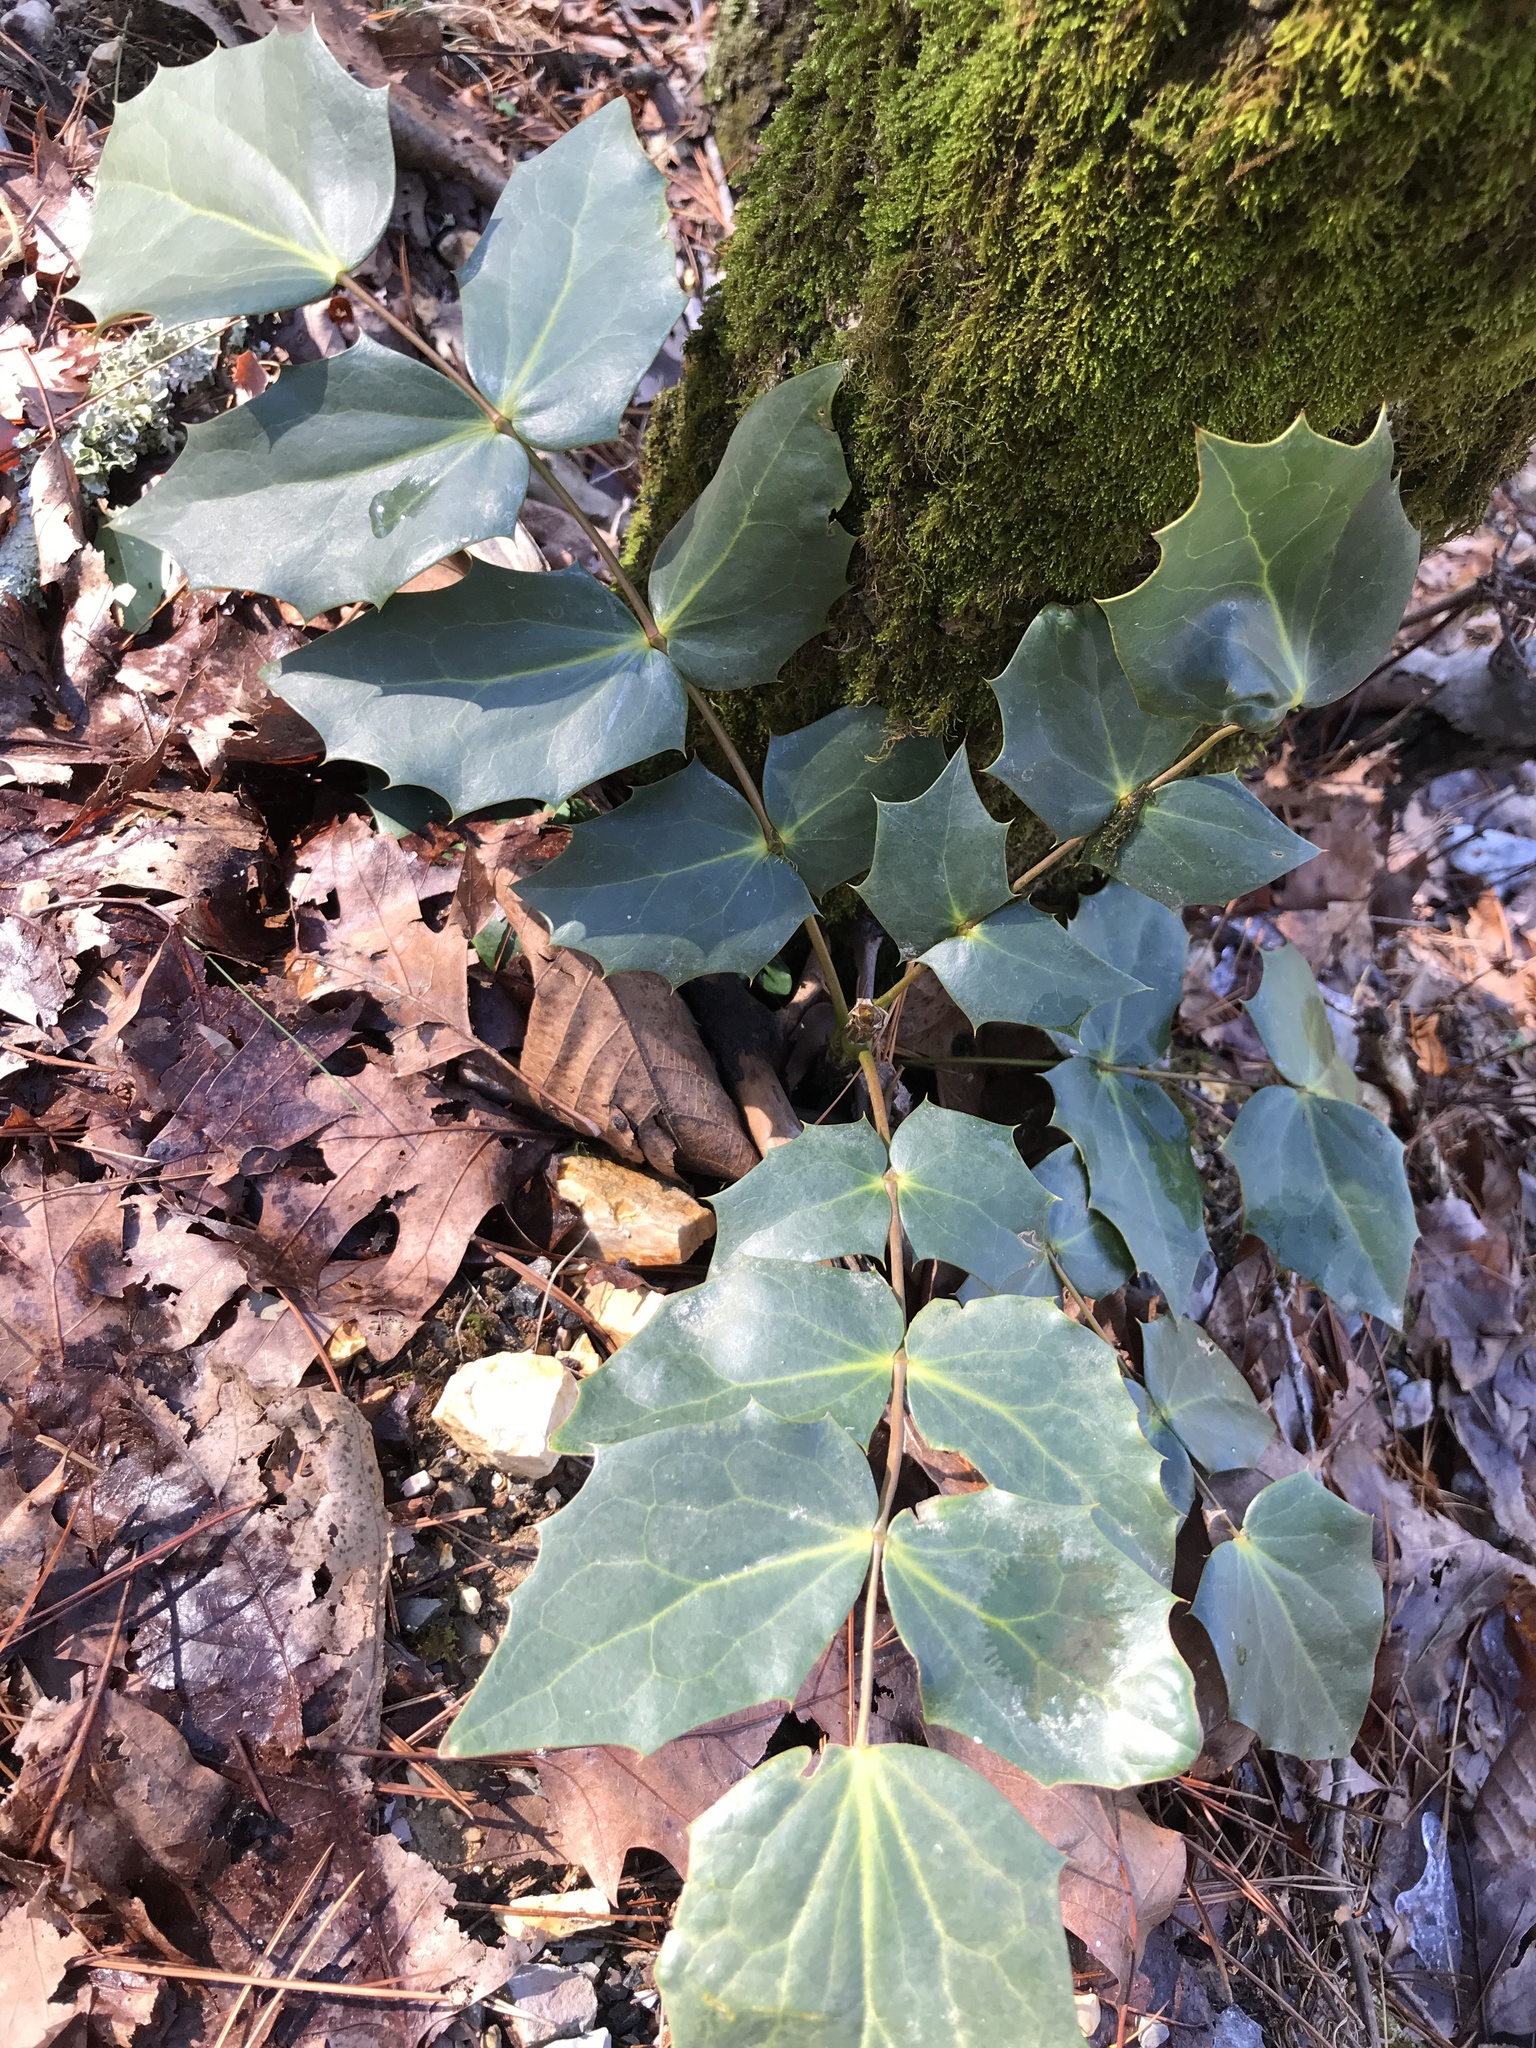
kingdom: Plantae
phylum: Tracheophyta
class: Magnoliopsida
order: Ranunculales
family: Berberidaceae
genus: Mahonia
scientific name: Mahonia bealei
